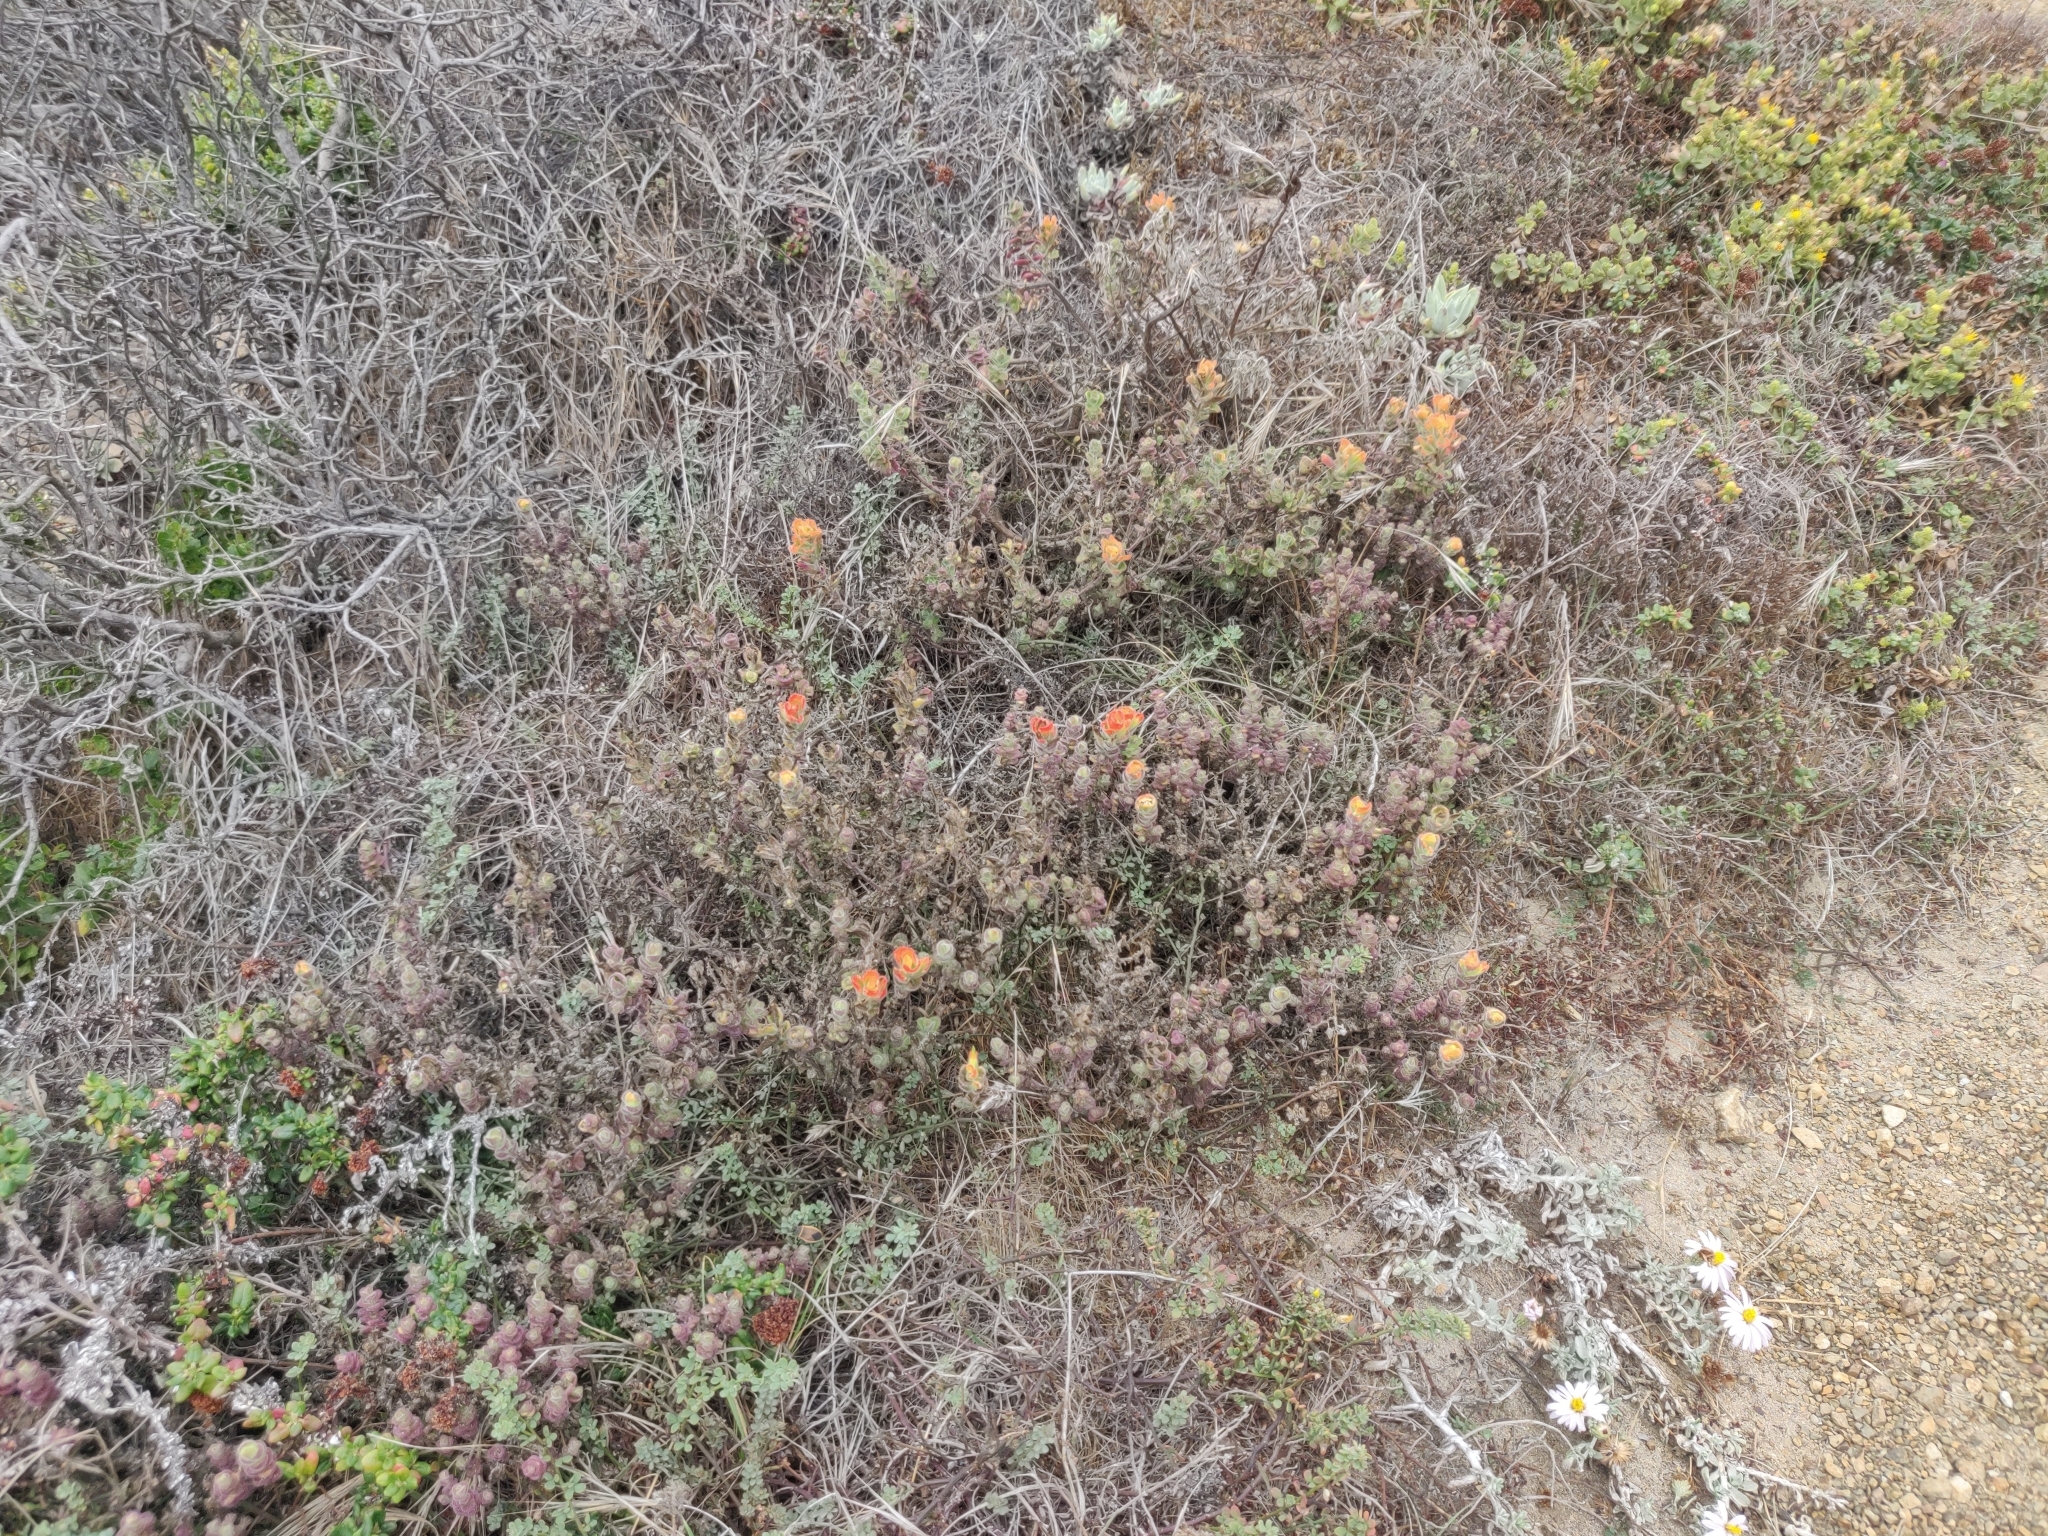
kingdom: Plantae
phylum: Tracheophyta
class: Magnoliopsida
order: Lamiales
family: Orobanchaceae
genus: Castilleja
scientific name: Castilleja latifolia
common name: Monterey indian paintbrush
